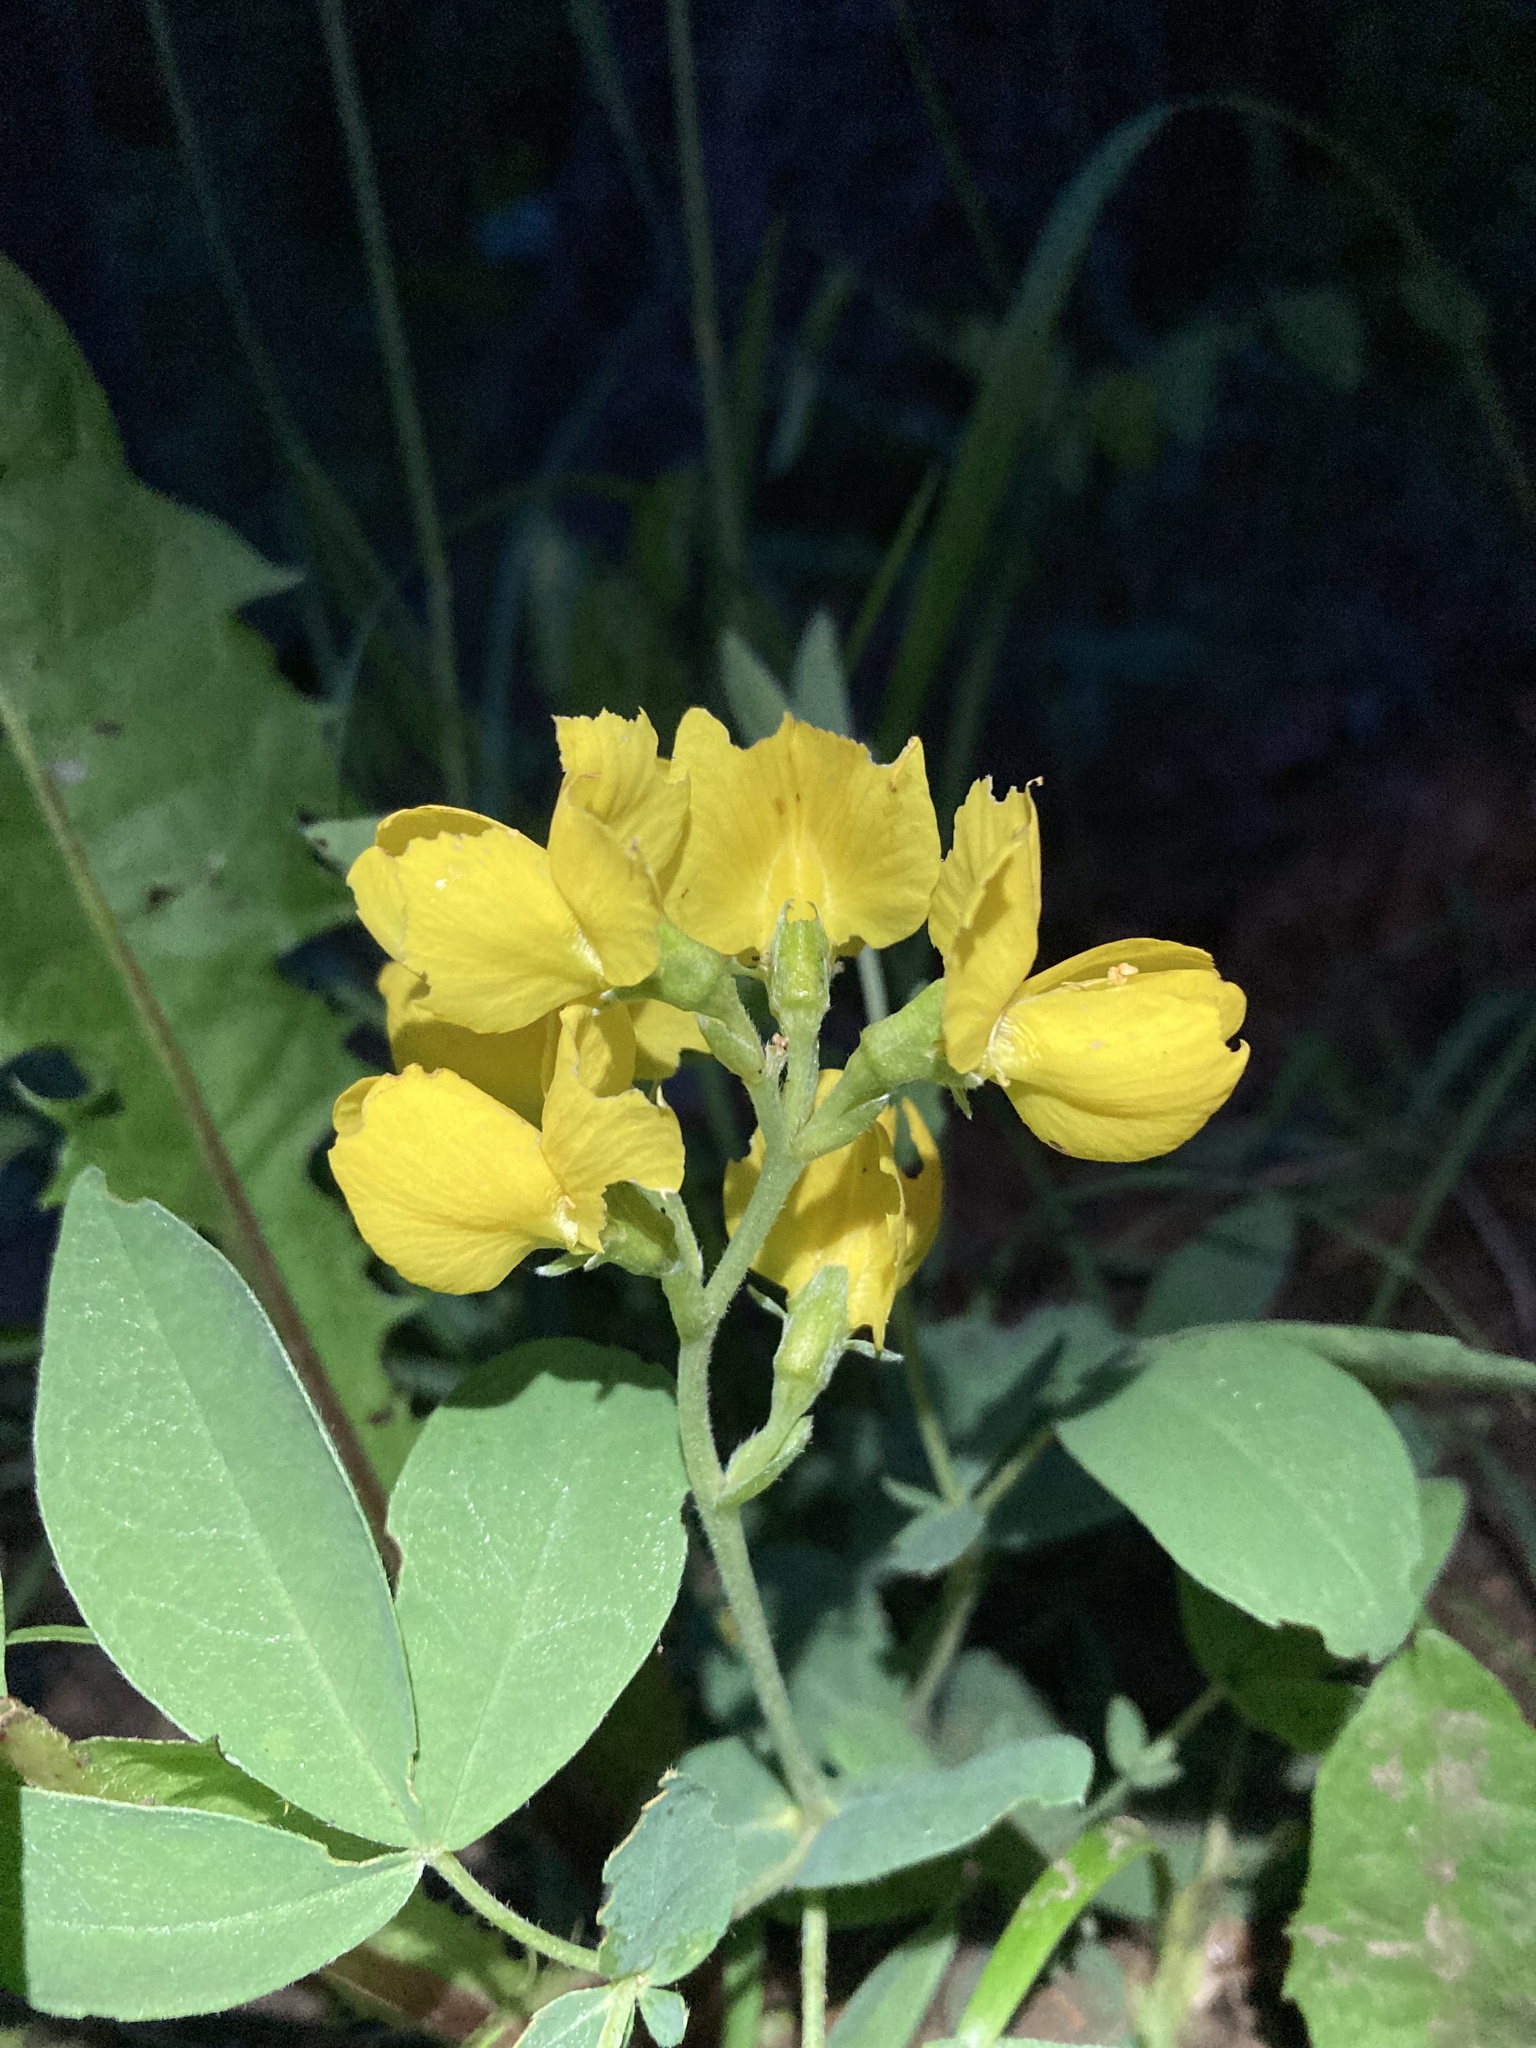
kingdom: Plantae
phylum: Tracheophyta
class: Magnoliopsida
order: Fabales
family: Fabaceae
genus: Thermopsis
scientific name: Thermopsis rhombifolia
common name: Circle-pod-pea
